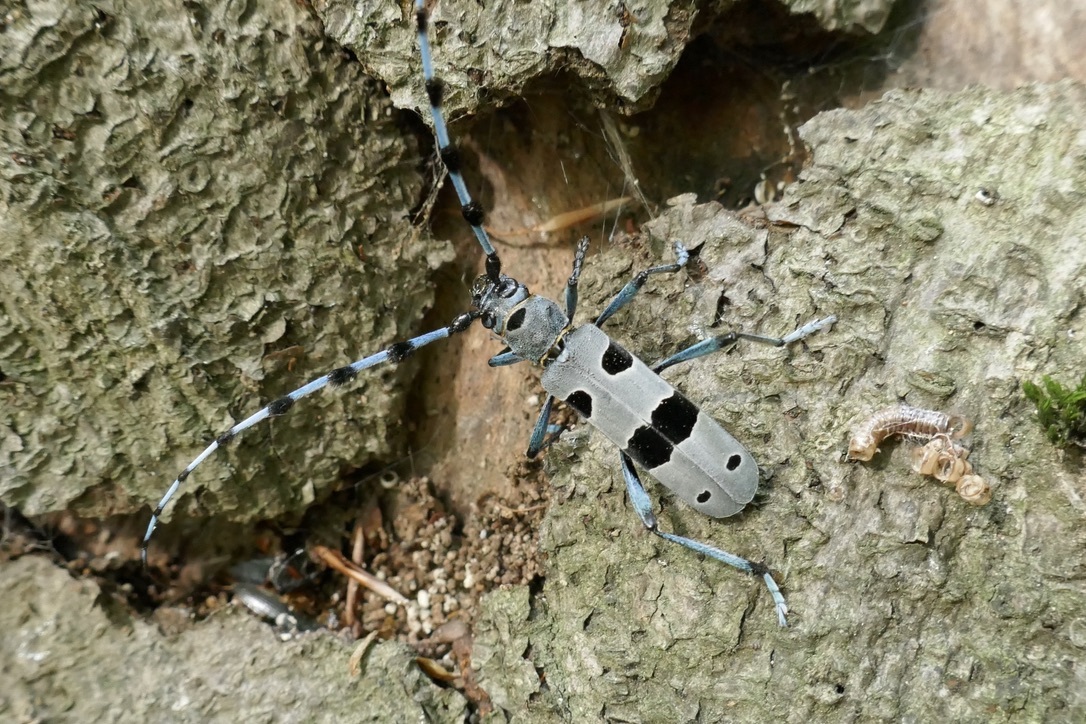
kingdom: Animalia
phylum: Arthropoda
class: Insecta
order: Coleoptera
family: Cerambycidae
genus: Rosalia
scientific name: Rosalia alpina
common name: Rosalia longicorn
